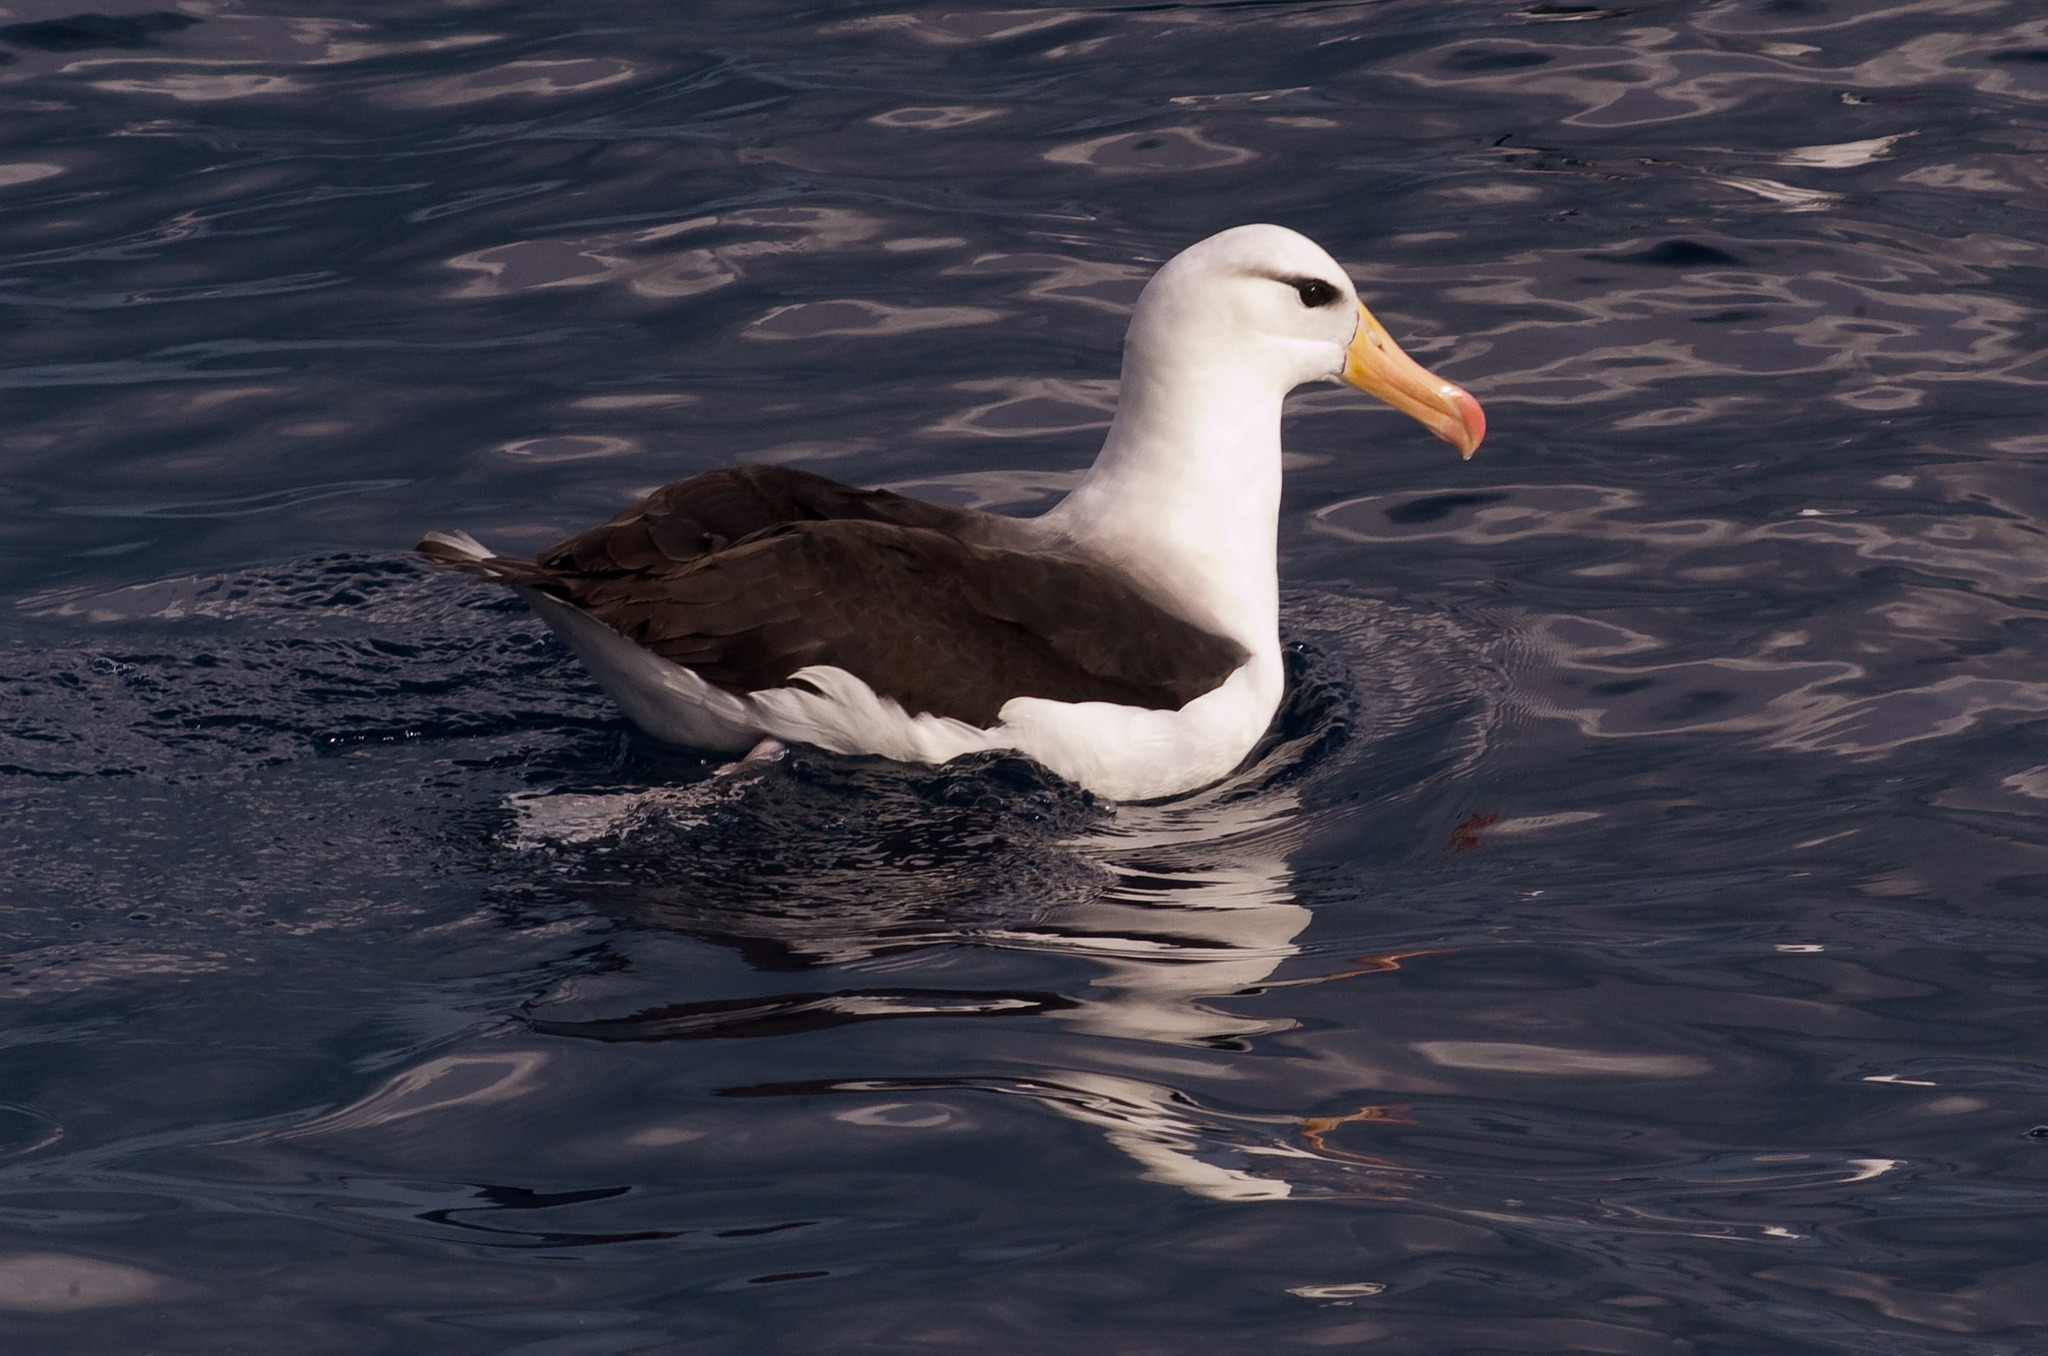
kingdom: Animalia
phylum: Chordata
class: Aves
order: Procellariiformes
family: Diomedeidae
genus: Thalassarche
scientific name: Thalassarche melanophris
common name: Black-browed albatross
